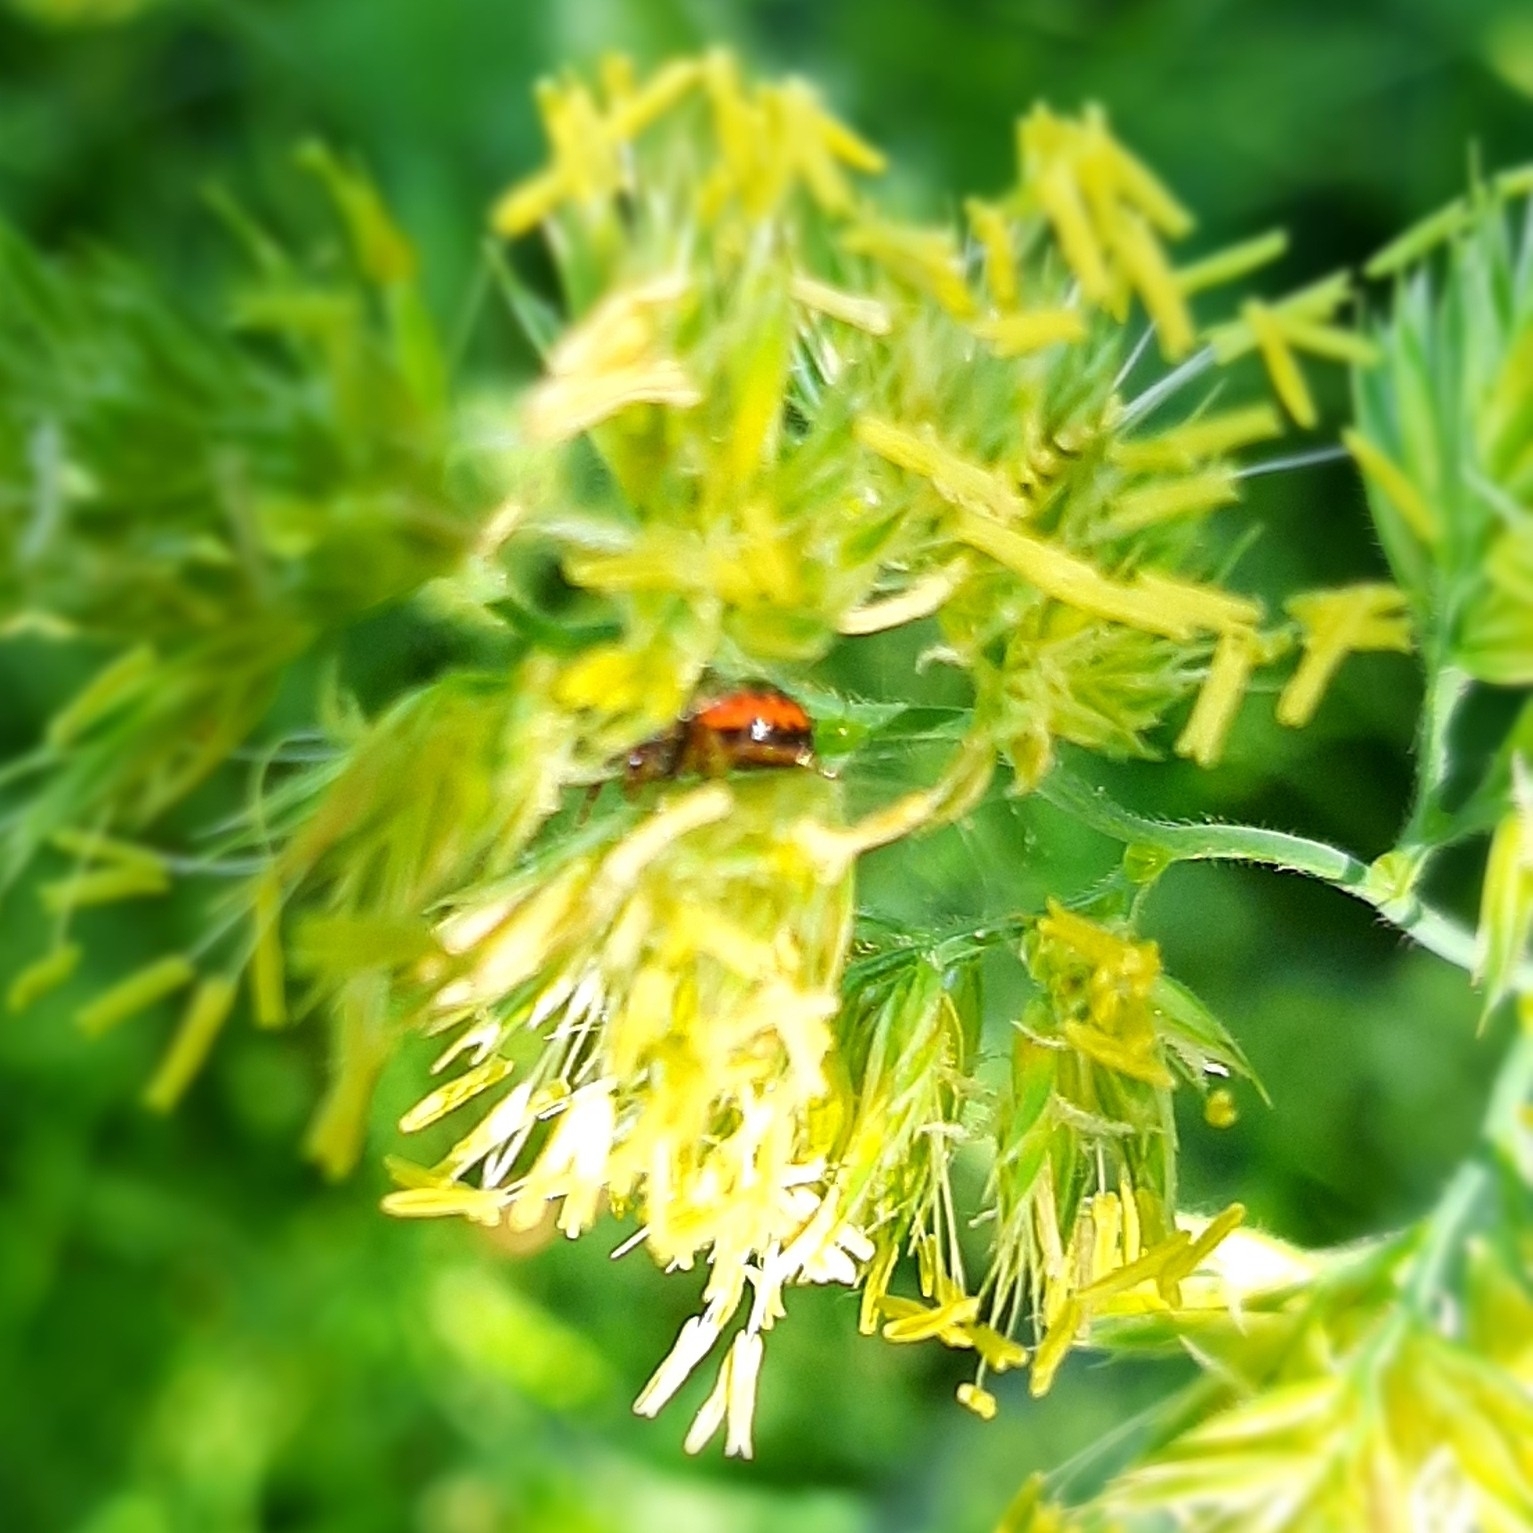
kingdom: Animalia
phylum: Arthropoda
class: Arachnida
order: Araneae
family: Thomisidae
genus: Synema
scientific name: Synema globosum
